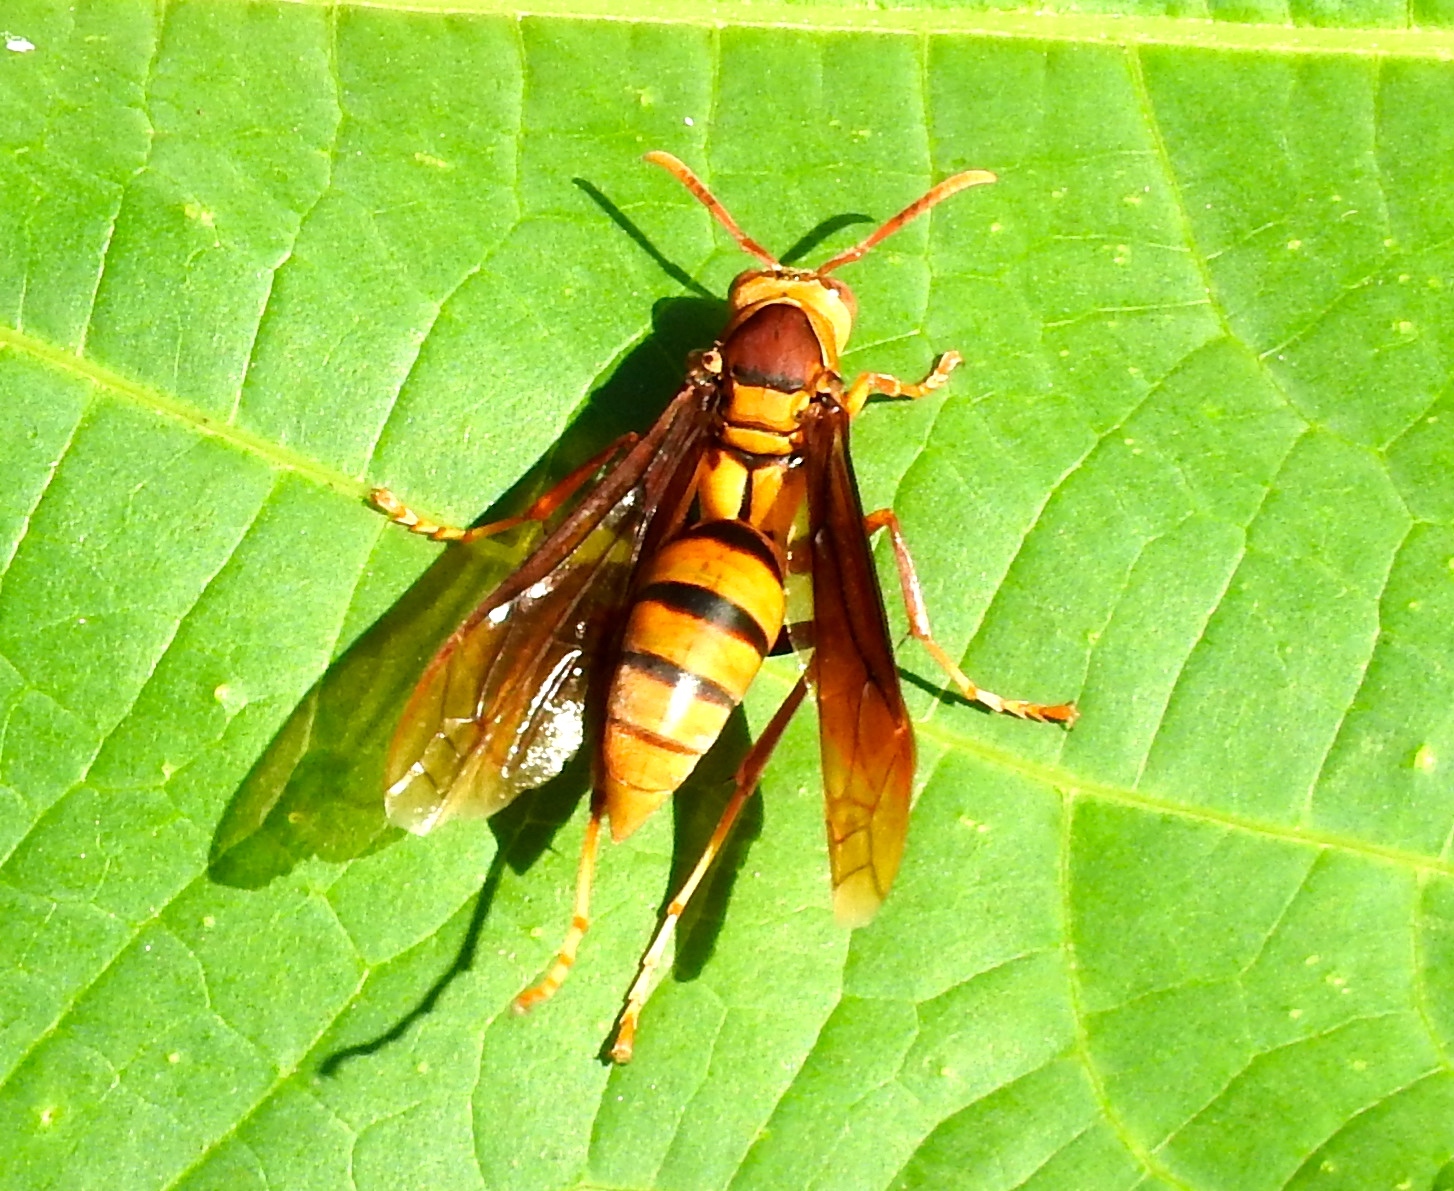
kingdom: Animalia
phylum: Arthropoda
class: Insecta
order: Hymenoptera
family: Eumenidae
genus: Polistes
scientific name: Polistes carnifex
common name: Paper wasp
